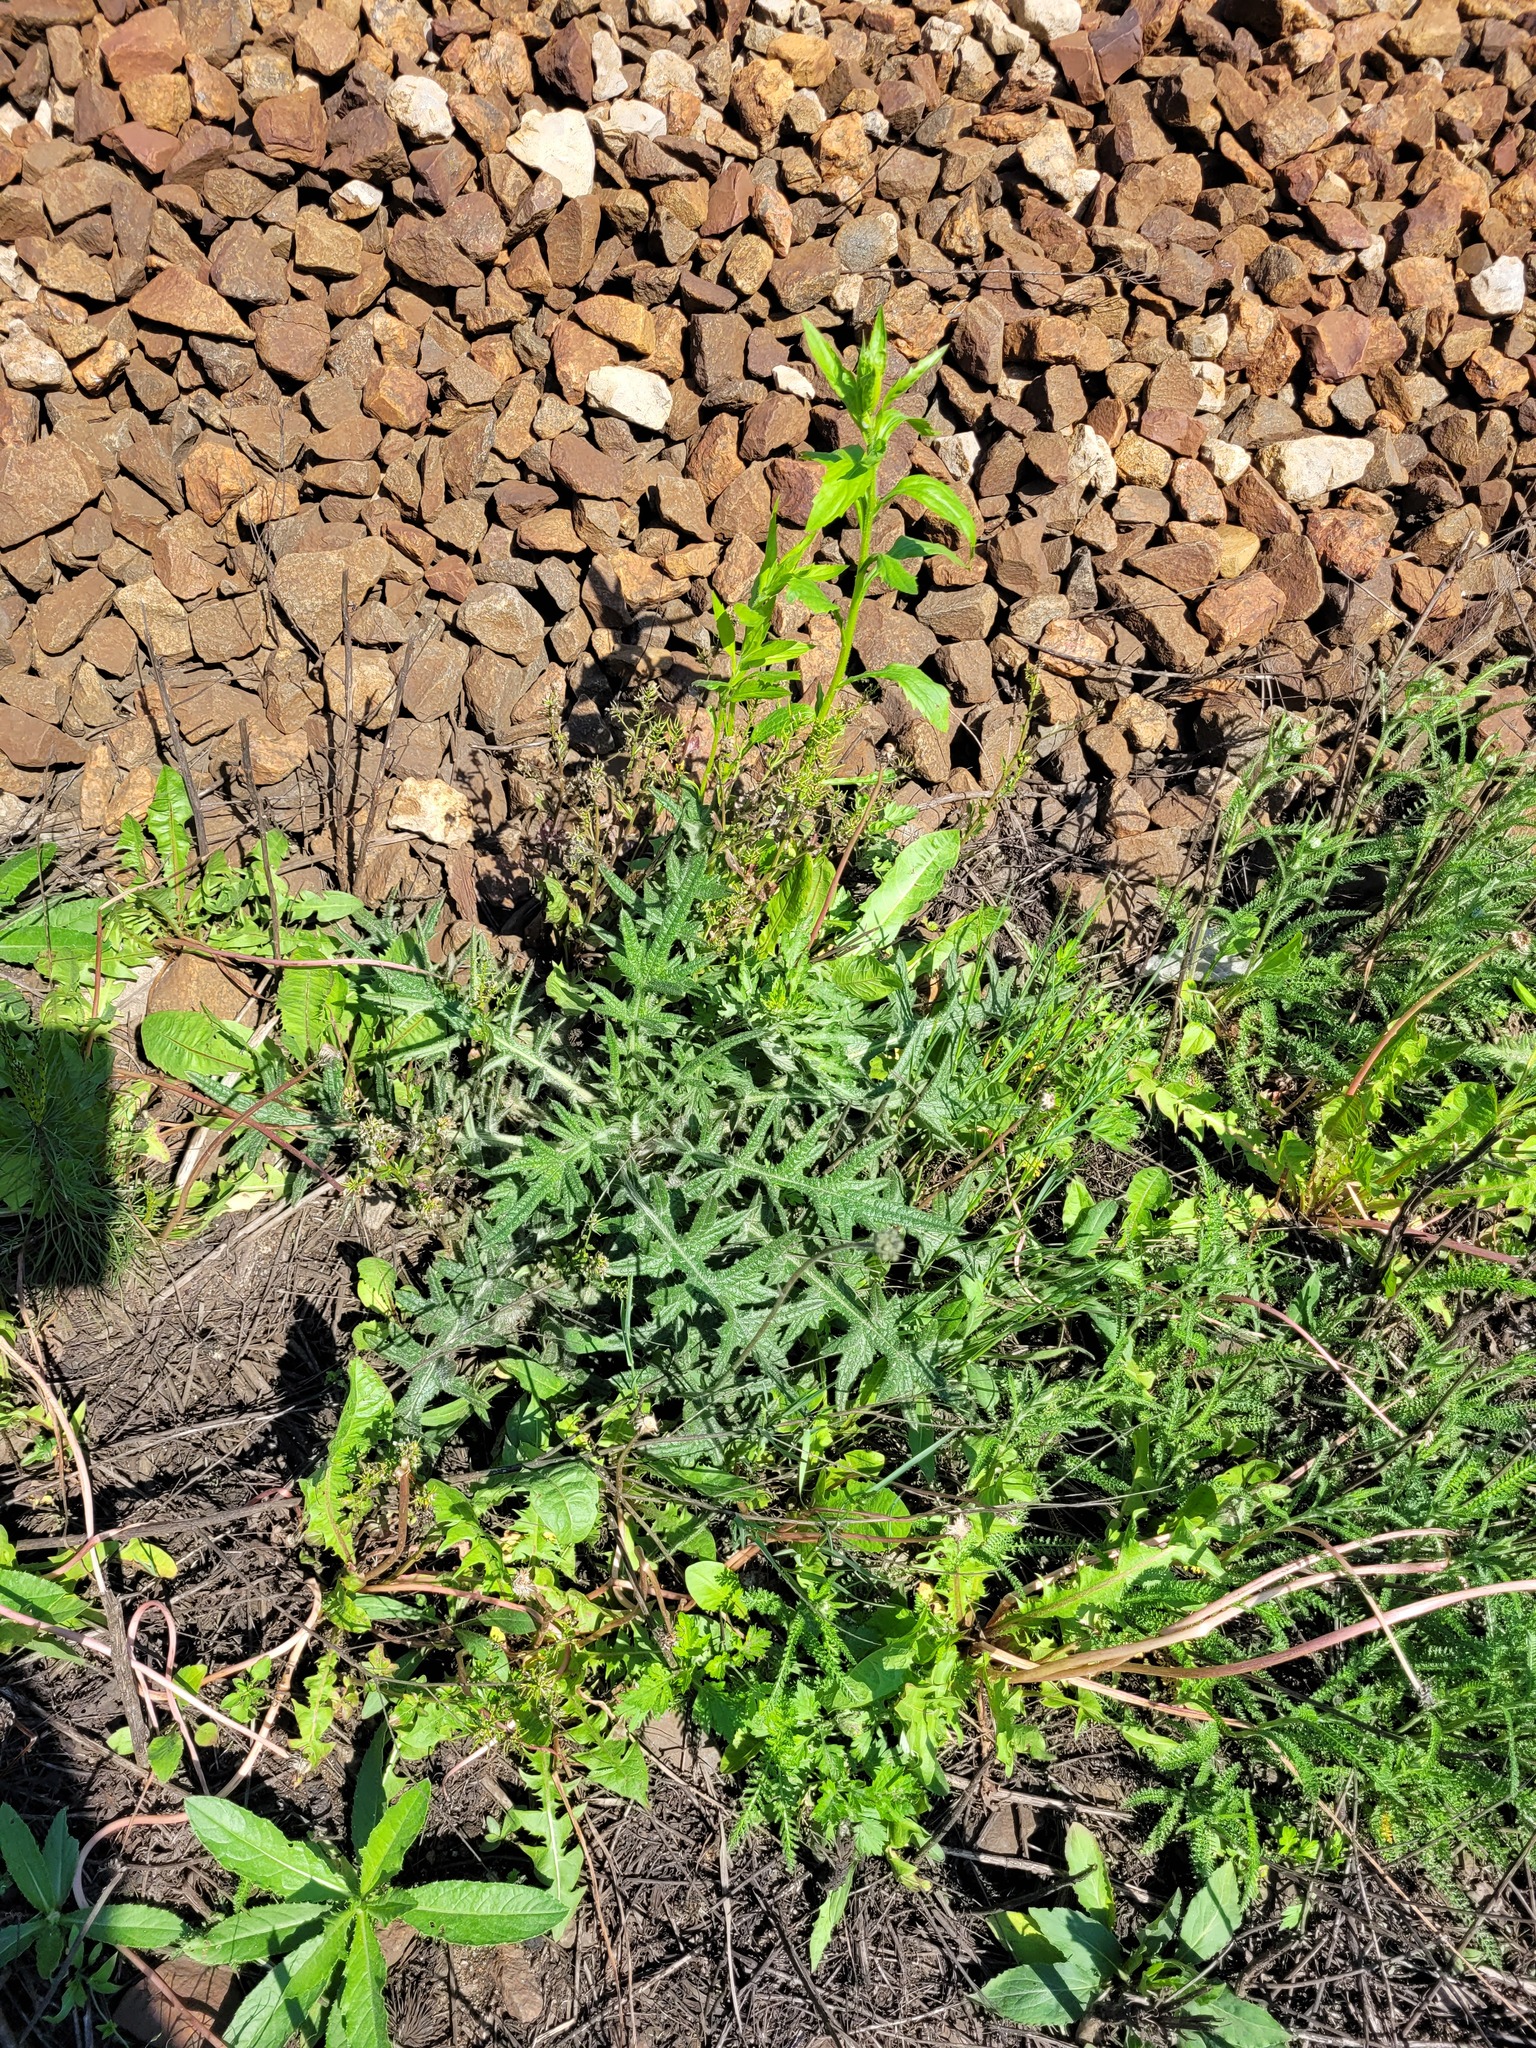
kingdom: Plantae
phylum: Tracheophyta
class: Magnoliopsida
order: Asterales
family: Asteraceae
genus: Cirsium
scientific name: Cirsium vulgare
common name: Bull thistle
